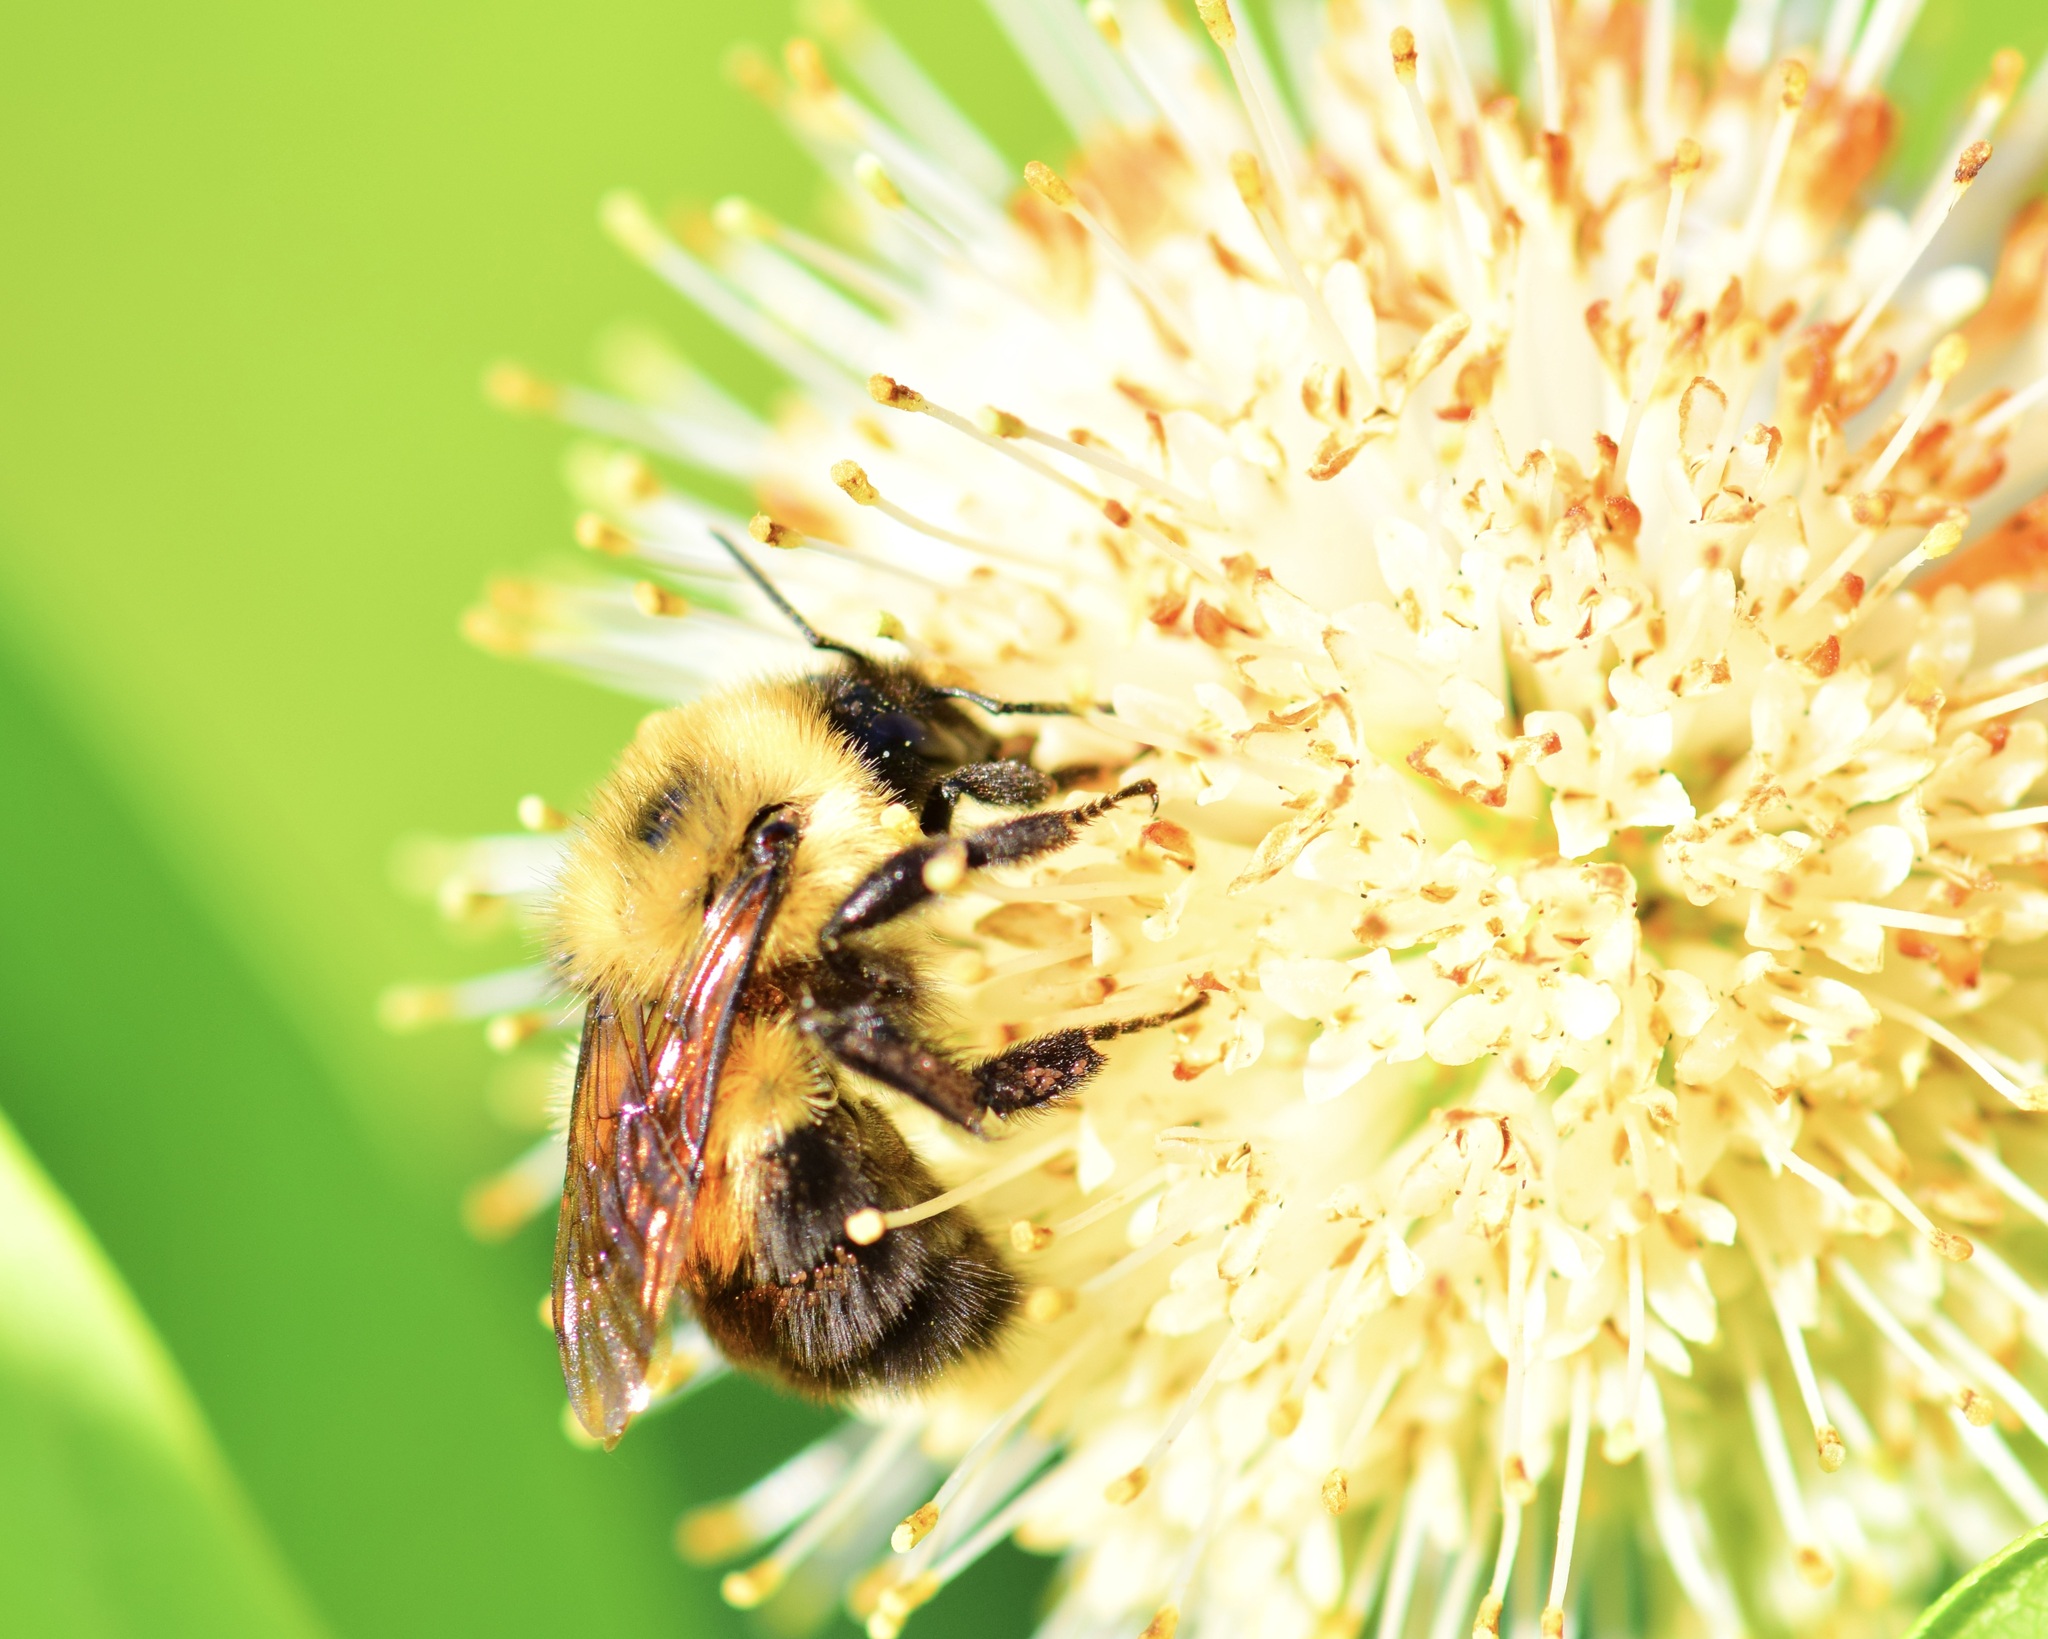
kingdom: Animalia
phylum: Arthropoda
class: Insecta
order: Hymenoptera
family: Apidae
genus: Bombus
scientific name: Bombus bimaculatus
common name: Two-spotted bumble bee
